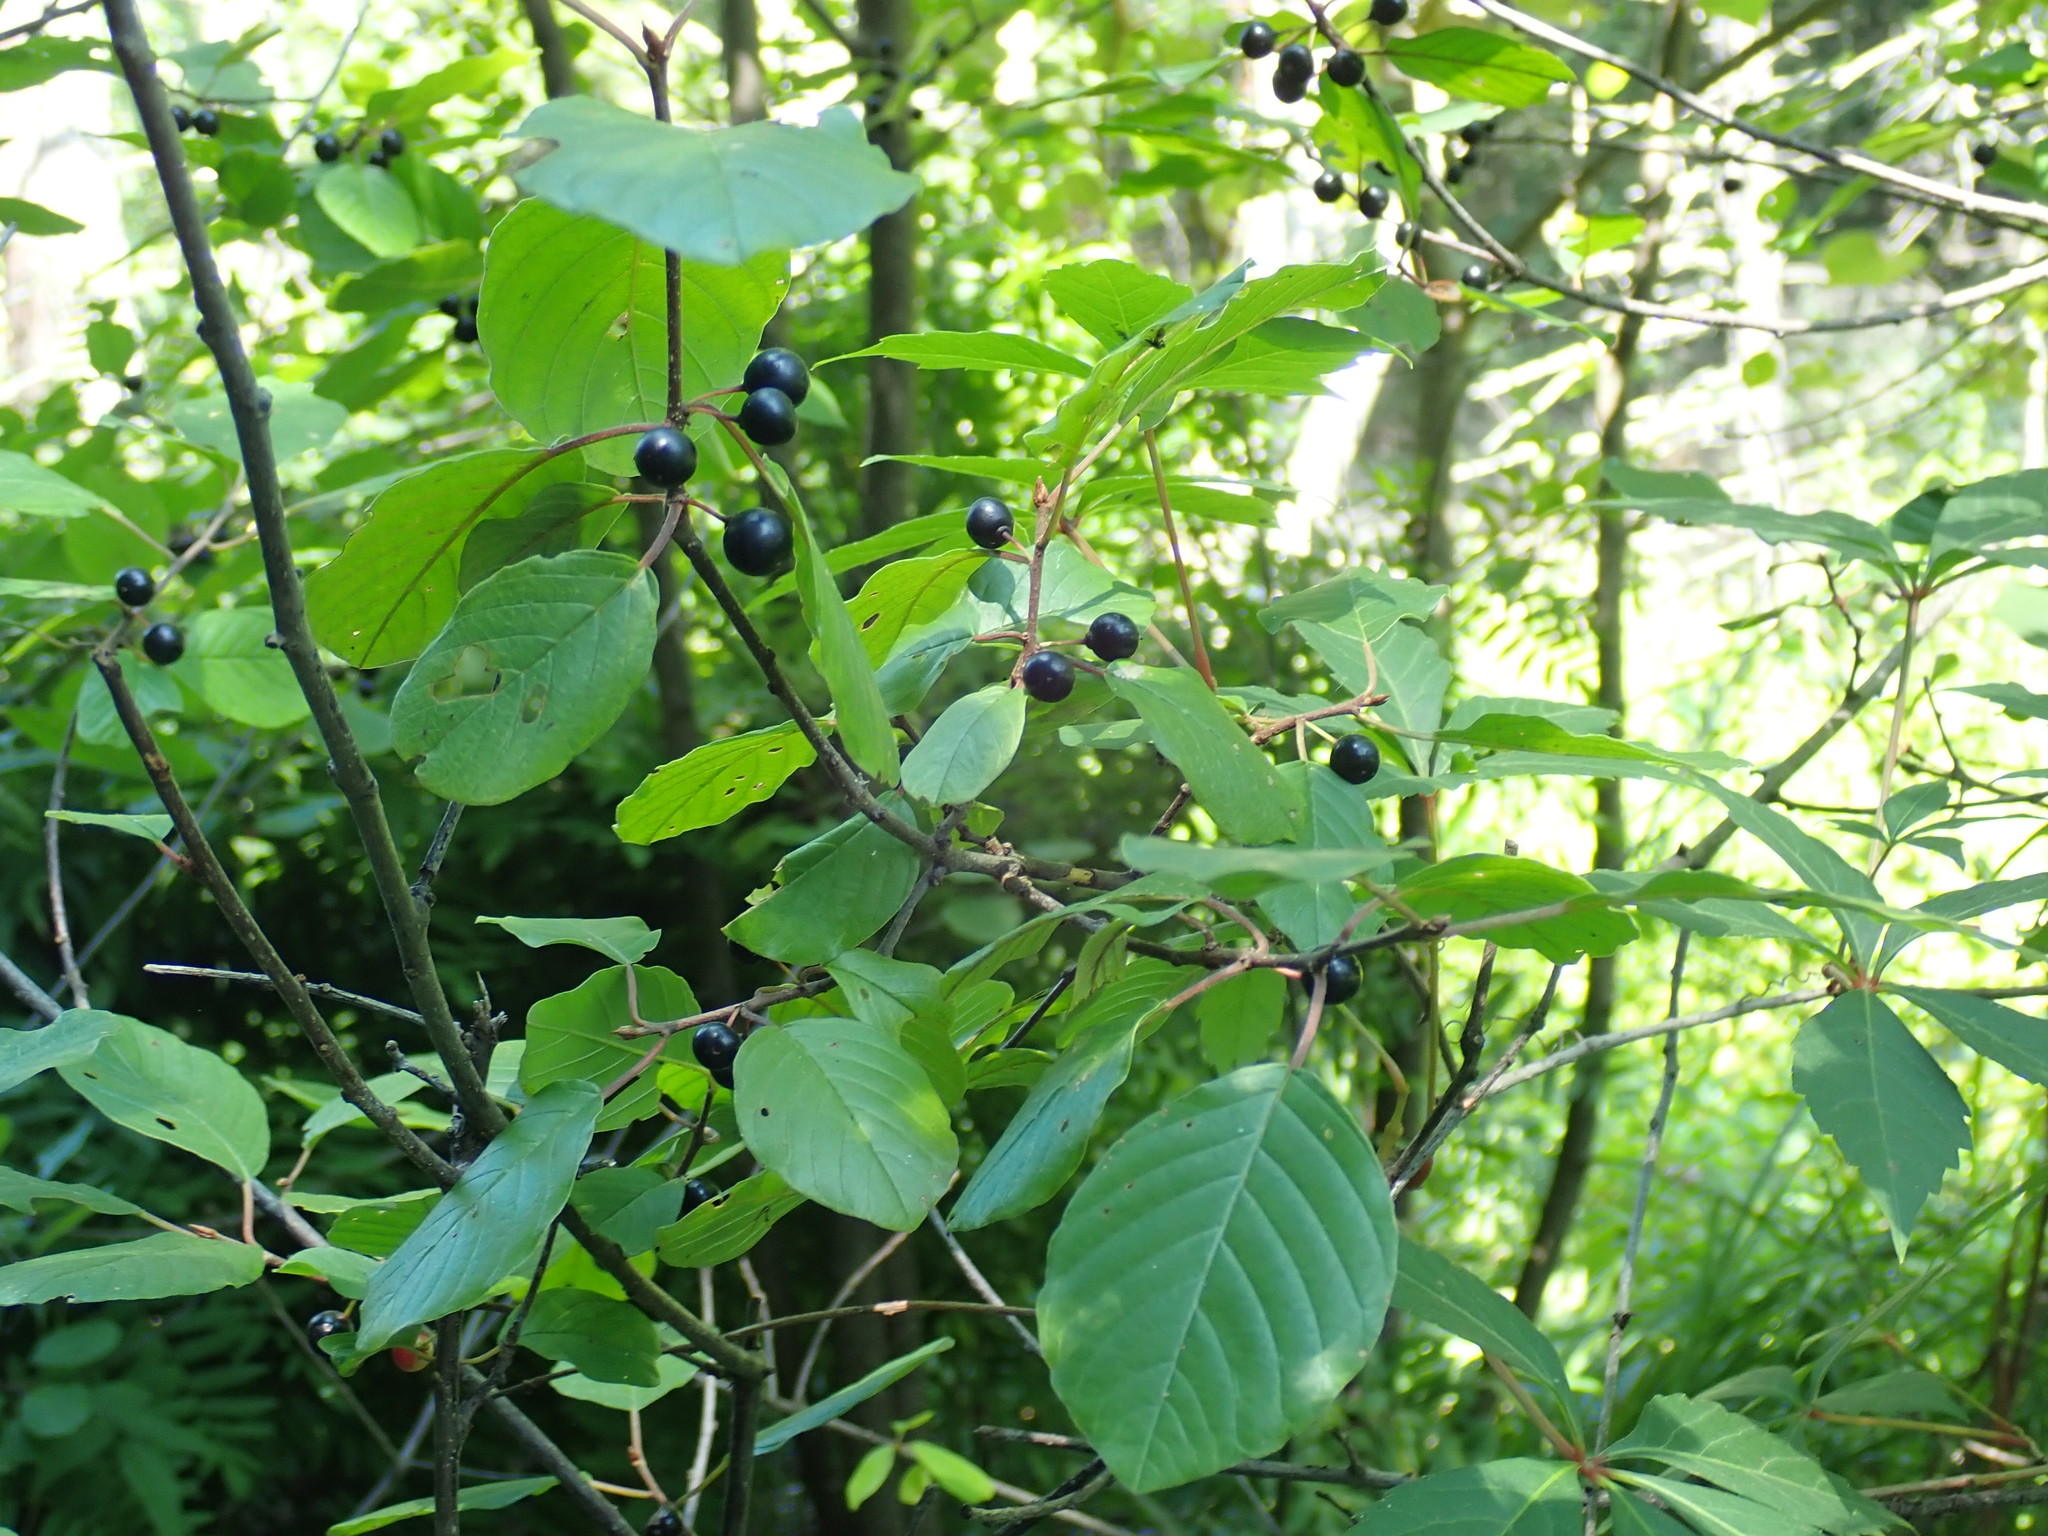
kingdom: Plantae
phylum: Tracheophyta
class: Magnoliopsida
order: Rosales
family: Rhamnaceae
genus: Frangula
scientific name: Frangula alnus
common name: Alder buckthorn
